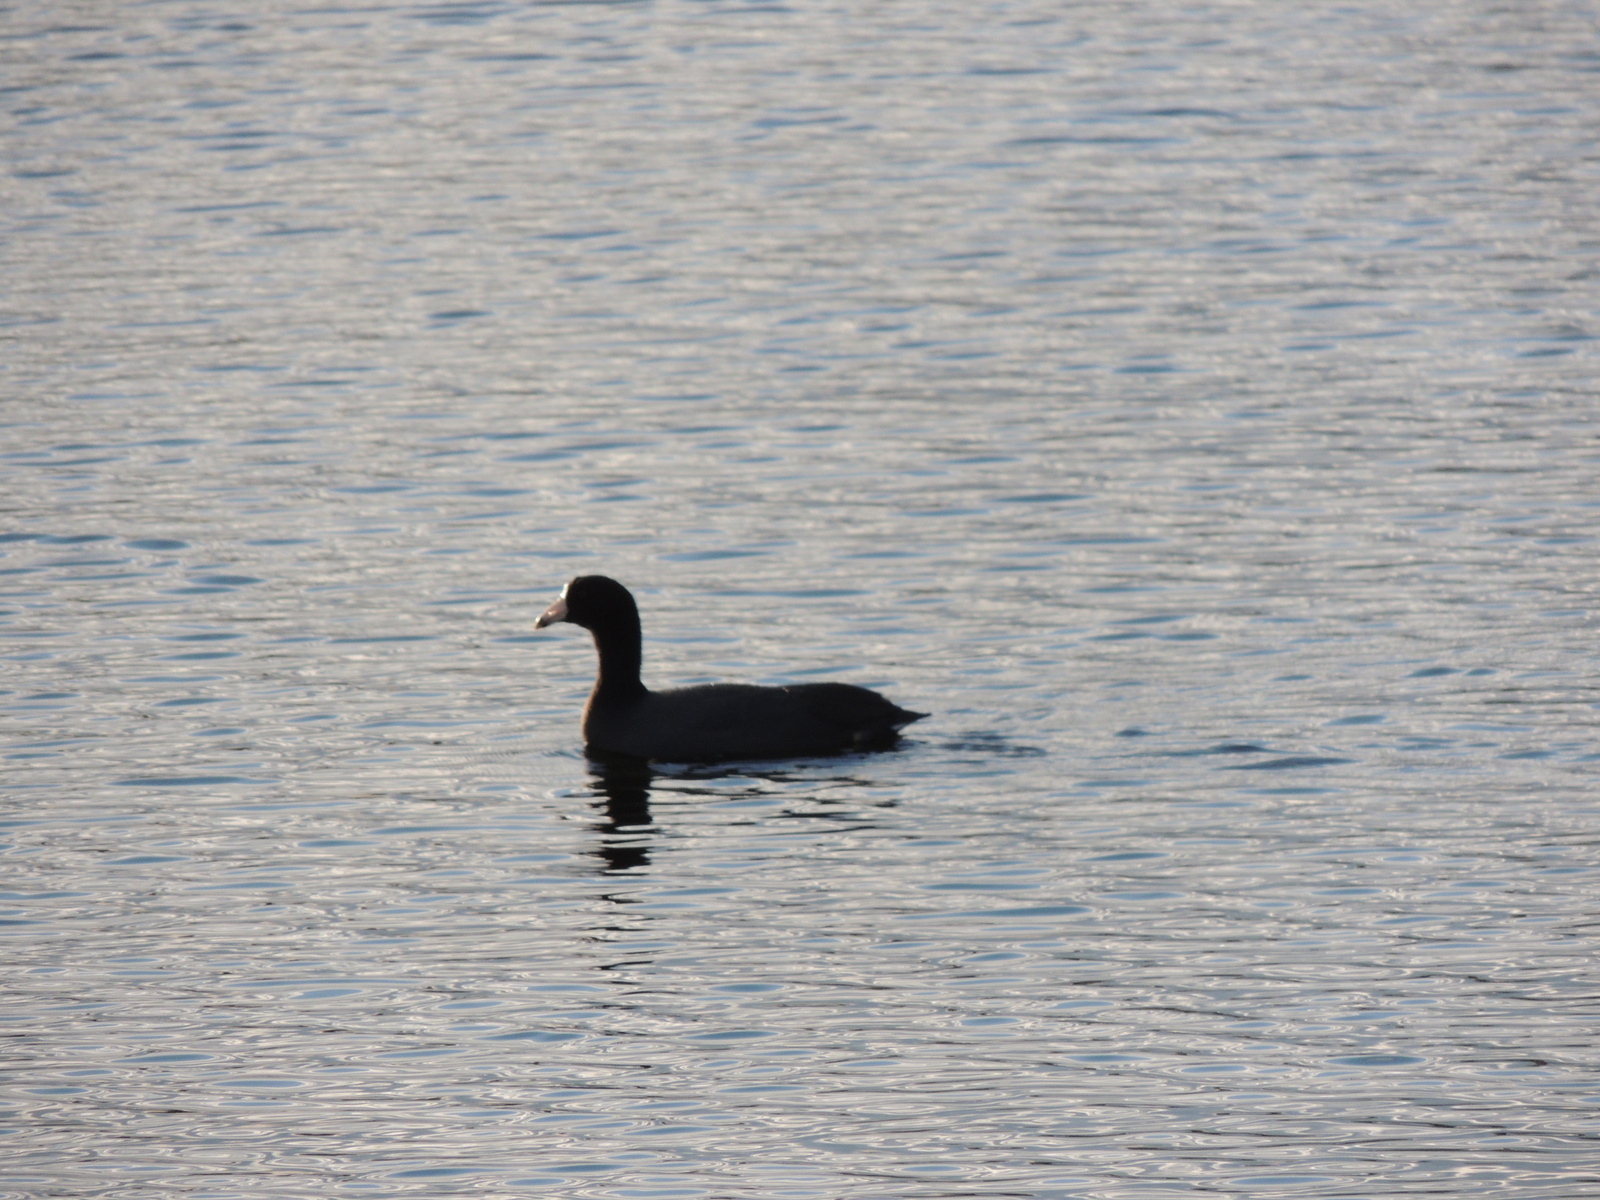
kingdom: Animalia
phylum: Chordata
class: Aves
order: Gruiformes
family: Rallidae
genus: Fulica
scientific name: Fulica americana
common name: American coot
